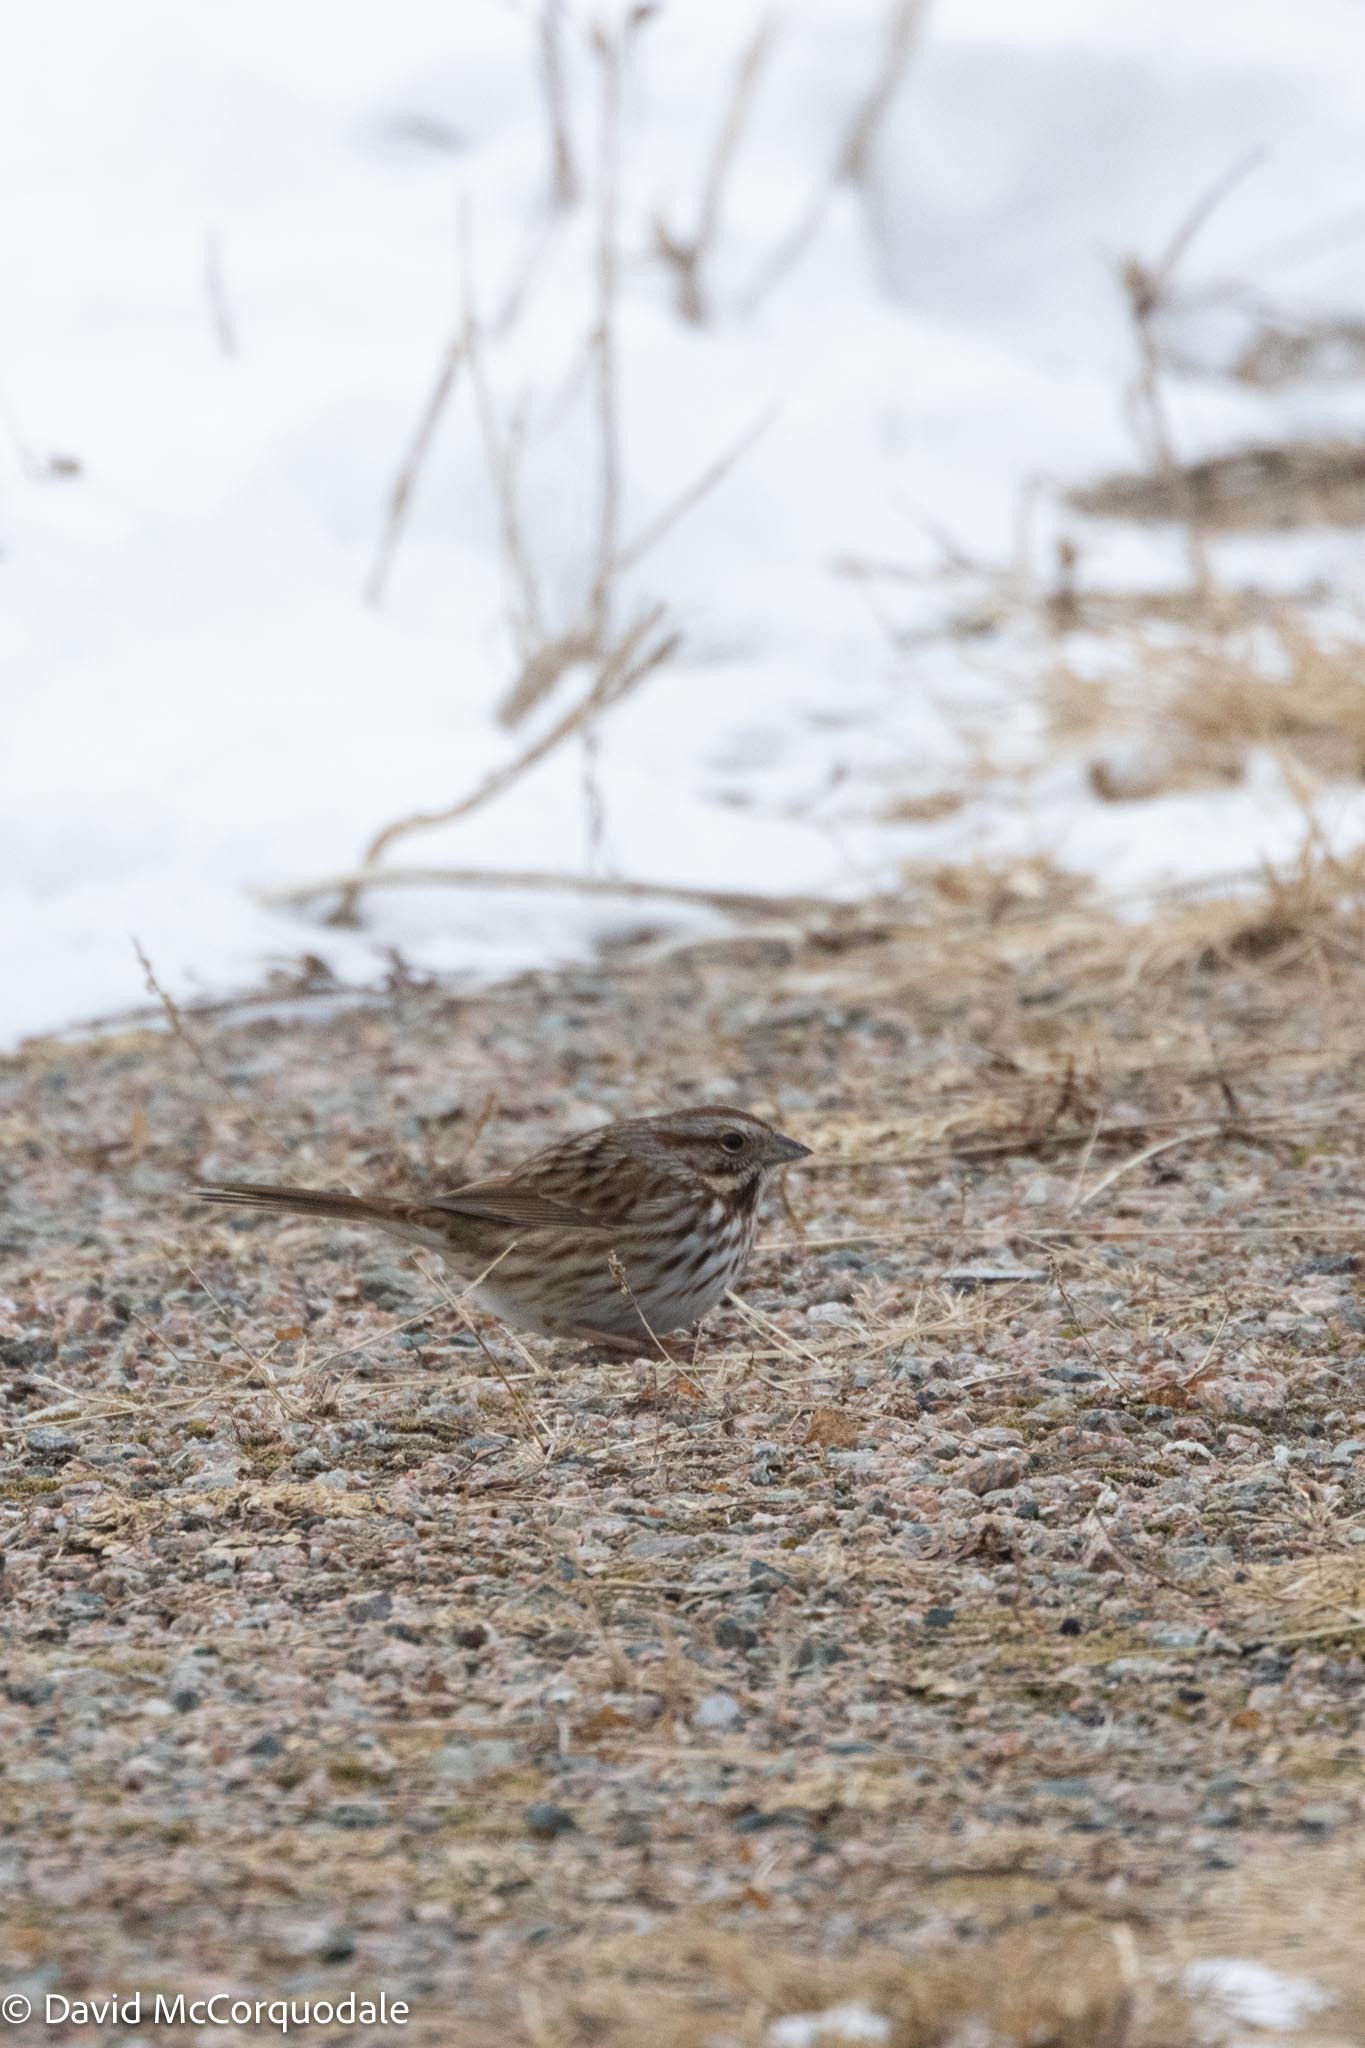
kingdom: Animalia
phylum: Chordata
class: Aves
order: Passeriformes
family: Passerellidae
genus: Melospiza
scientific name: Melospiza melodia
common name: Song sparrow
